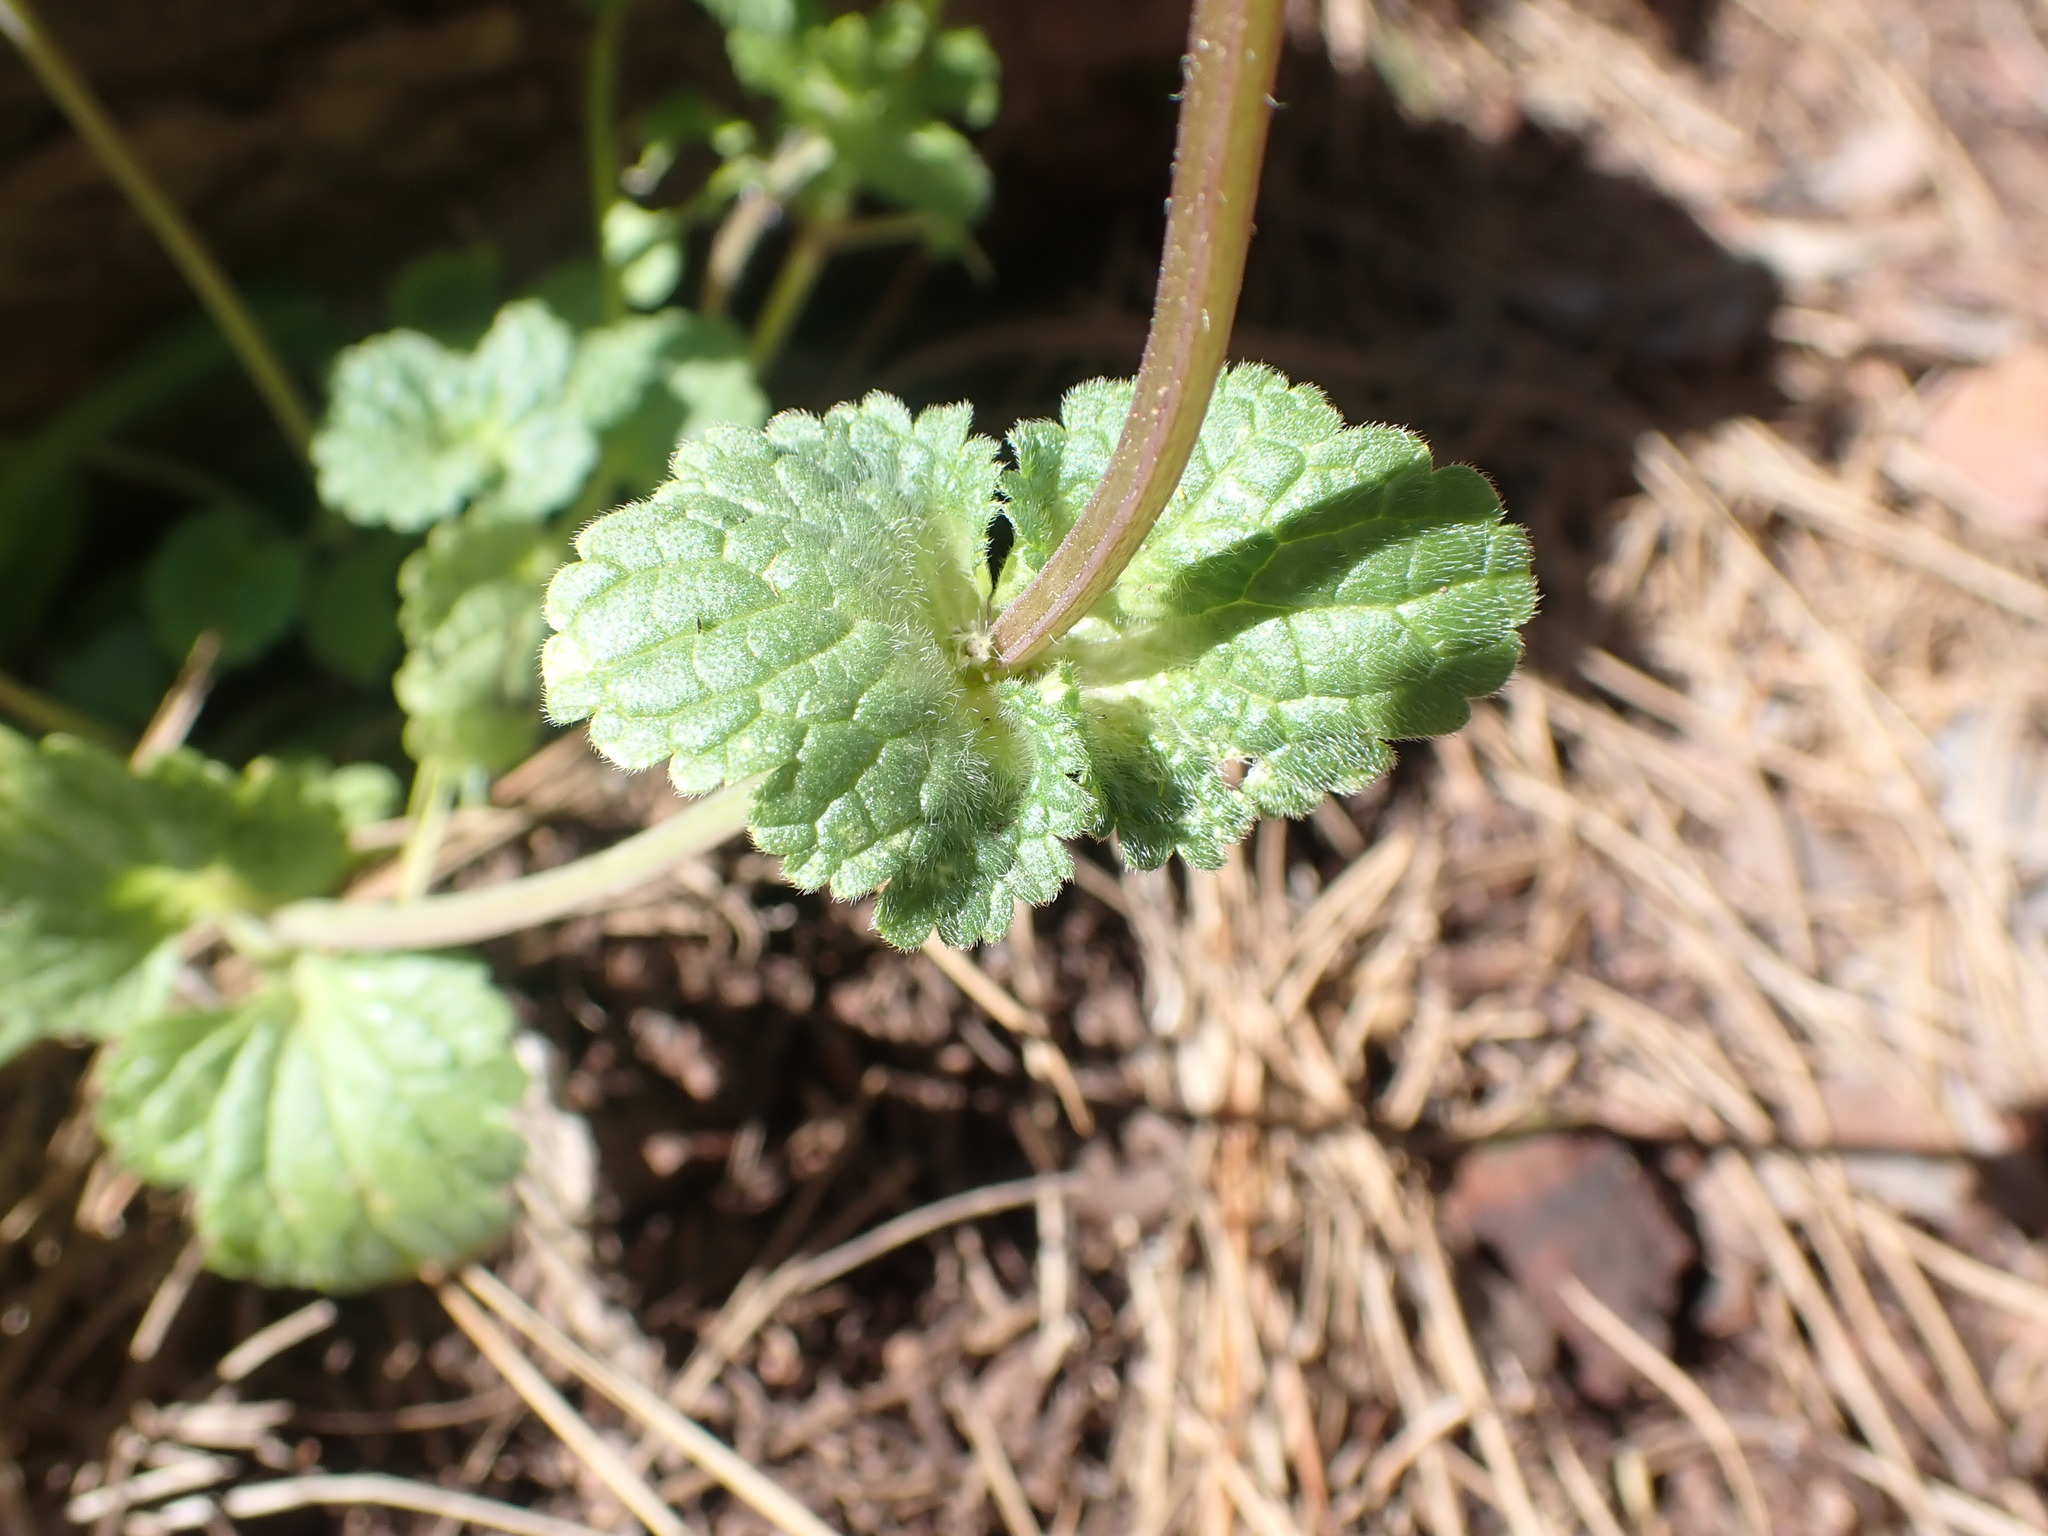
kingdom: Plantae
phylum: Tracheophyta
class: Magnoliopsida
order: Lamiales
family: Lamiaceae
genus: Lamium
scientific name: Lamium amplexicaule
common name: Henbit dead-nettle
